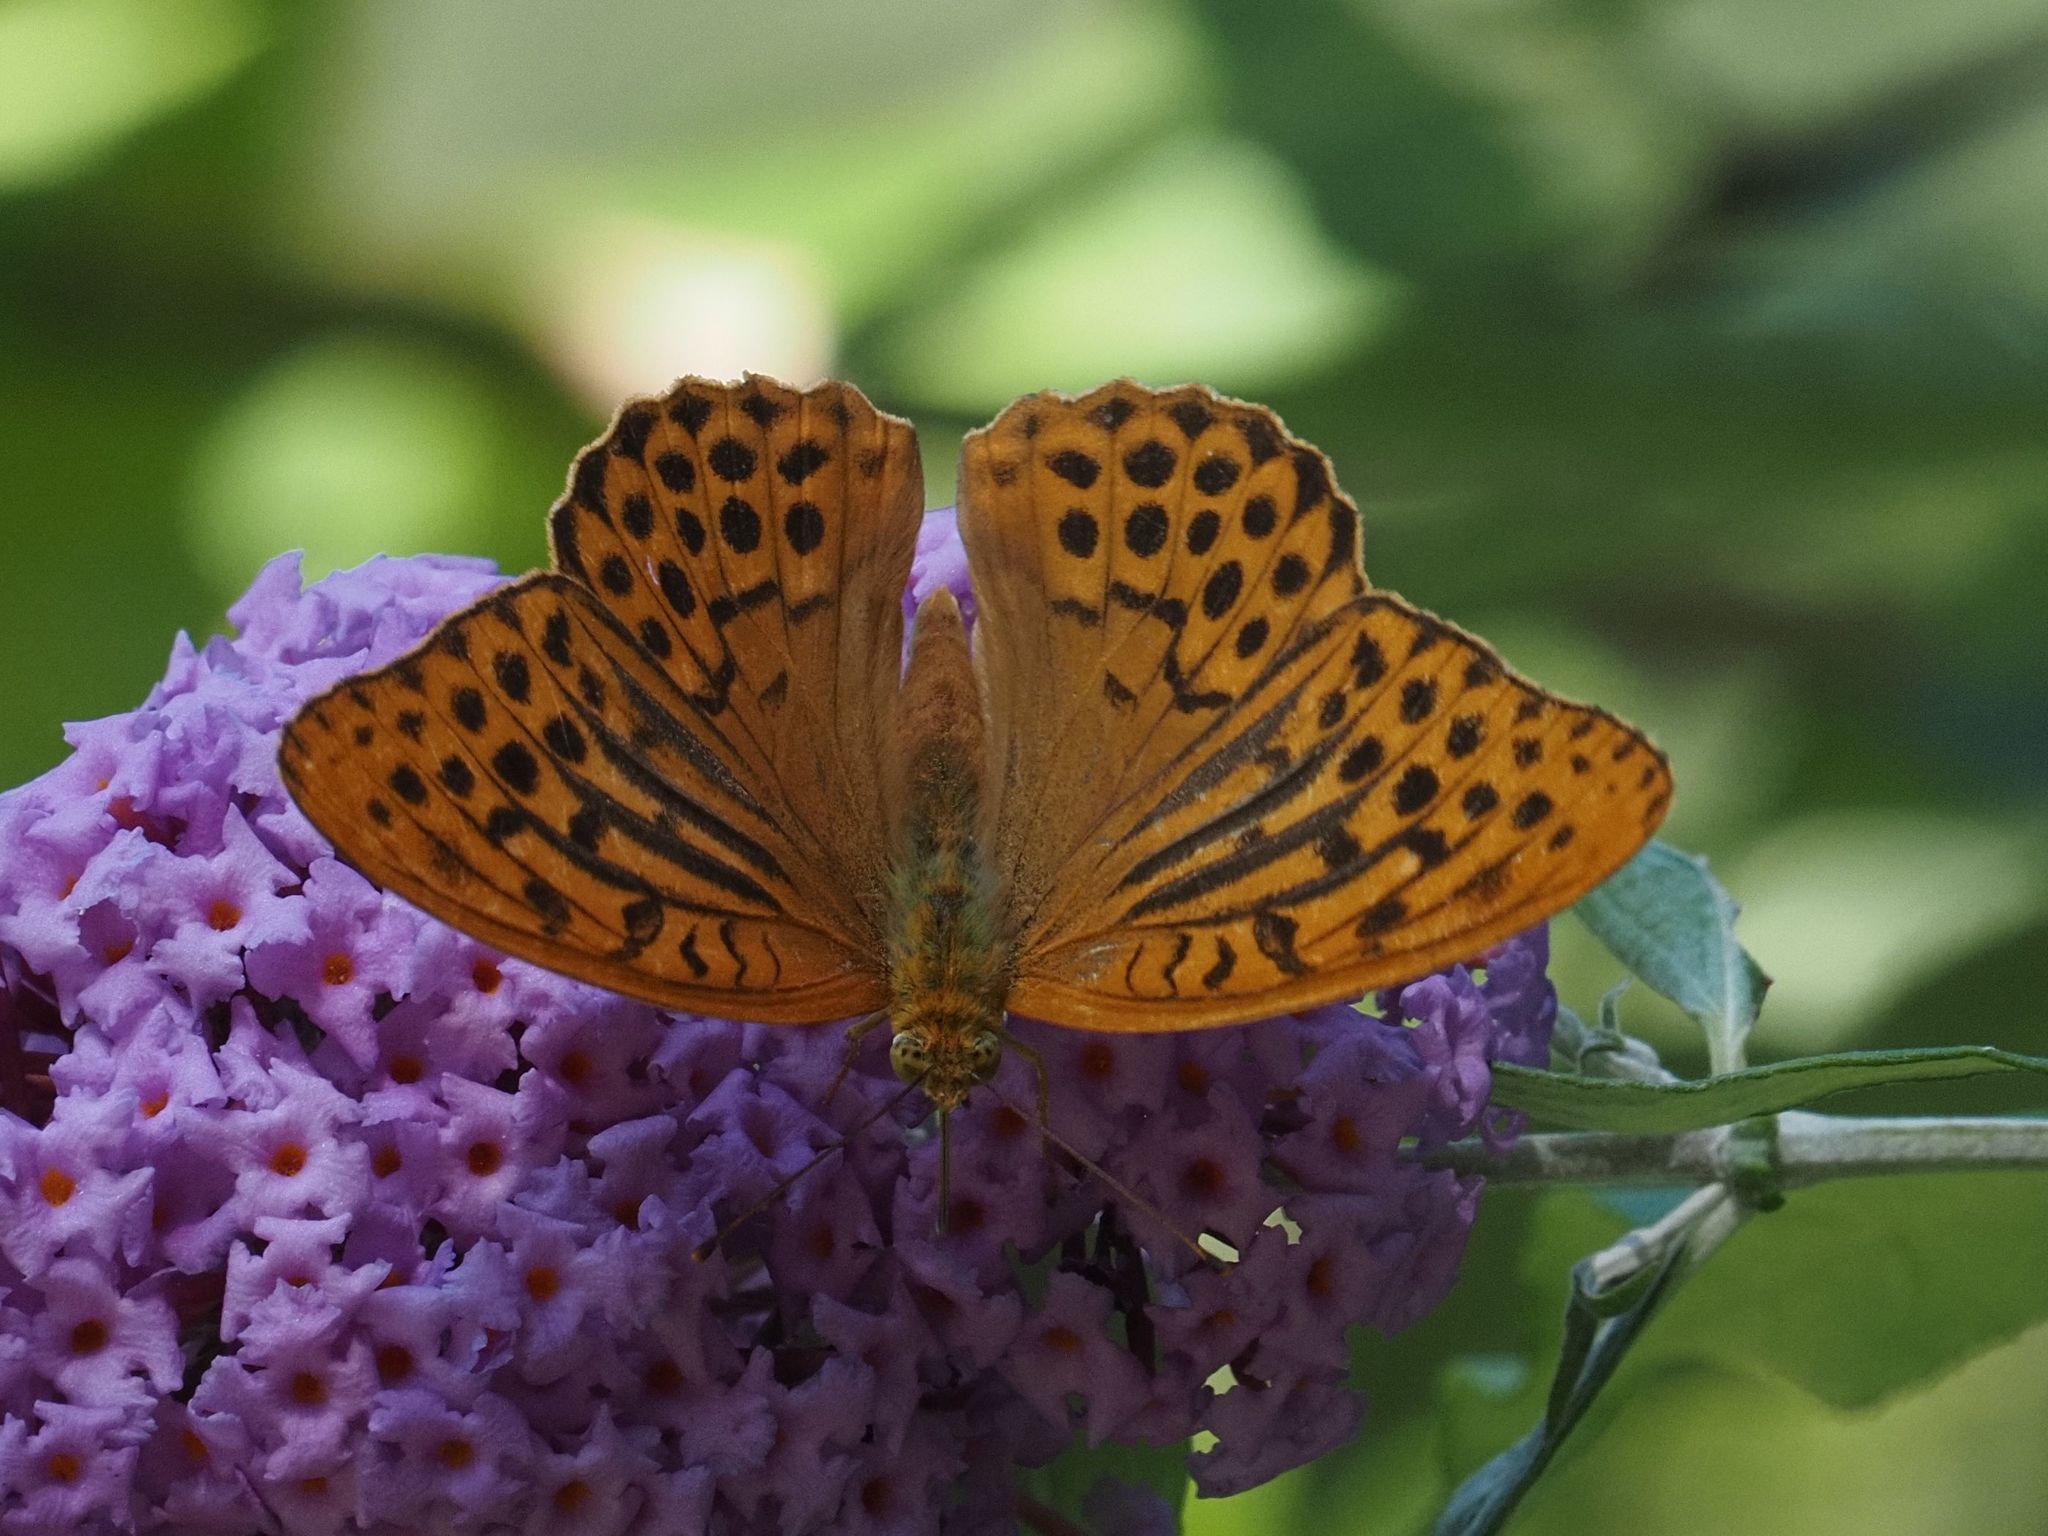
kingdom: Animalia
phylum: Arthropoda
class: Insecta
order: Lepidoptera
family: Nymphalidae
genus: Argynnis
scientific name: Argynnis paphia
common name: Silver-washed fritillary
